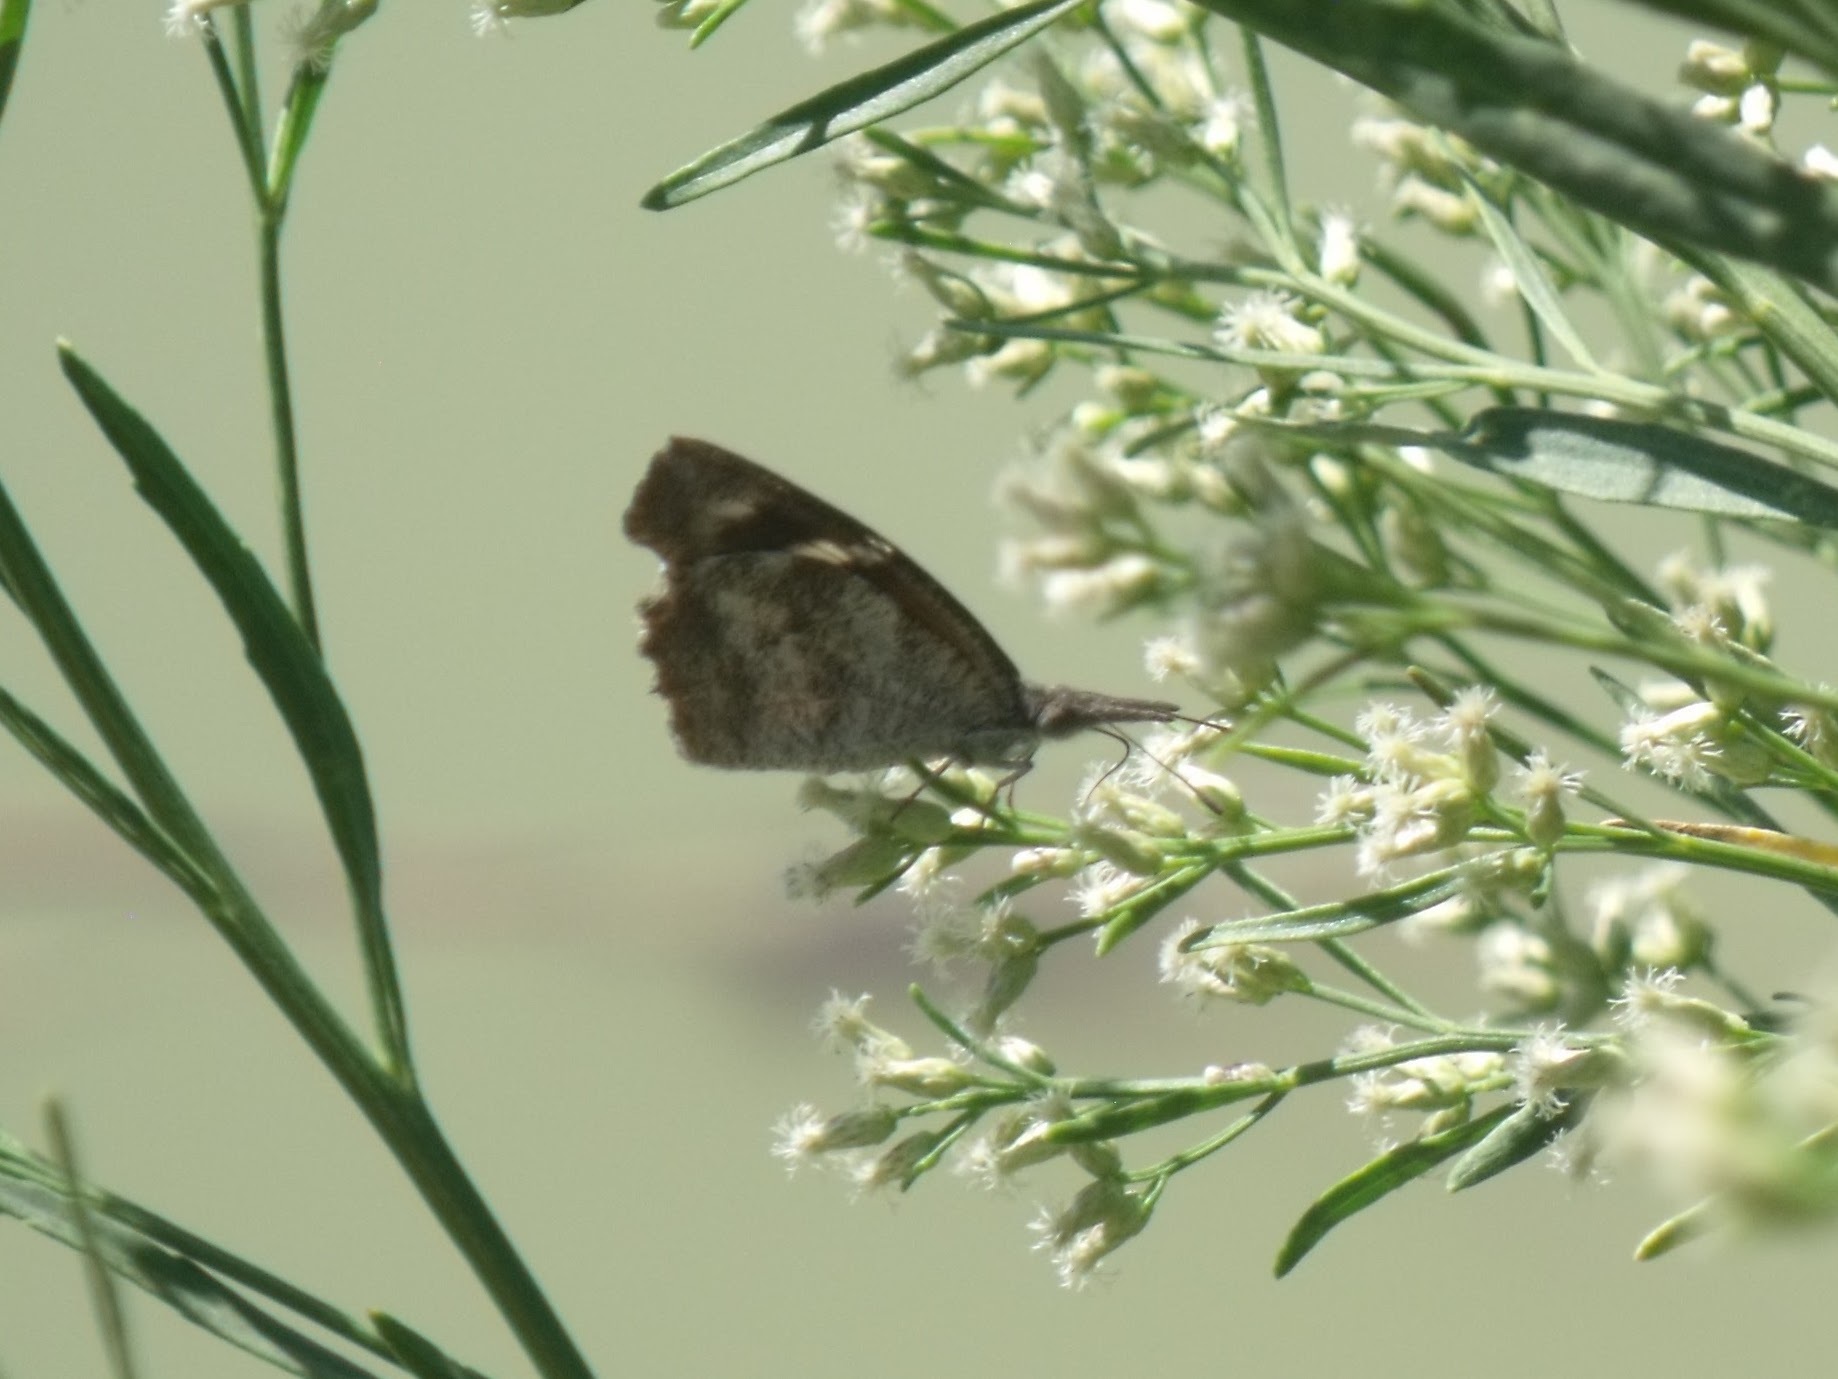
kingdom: Animalia
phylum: Arthropoda
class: Insecta
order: Lepidoptera
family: Nymphalidae
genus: Libytheana
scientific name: Libytheana carinenta
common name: American snout
